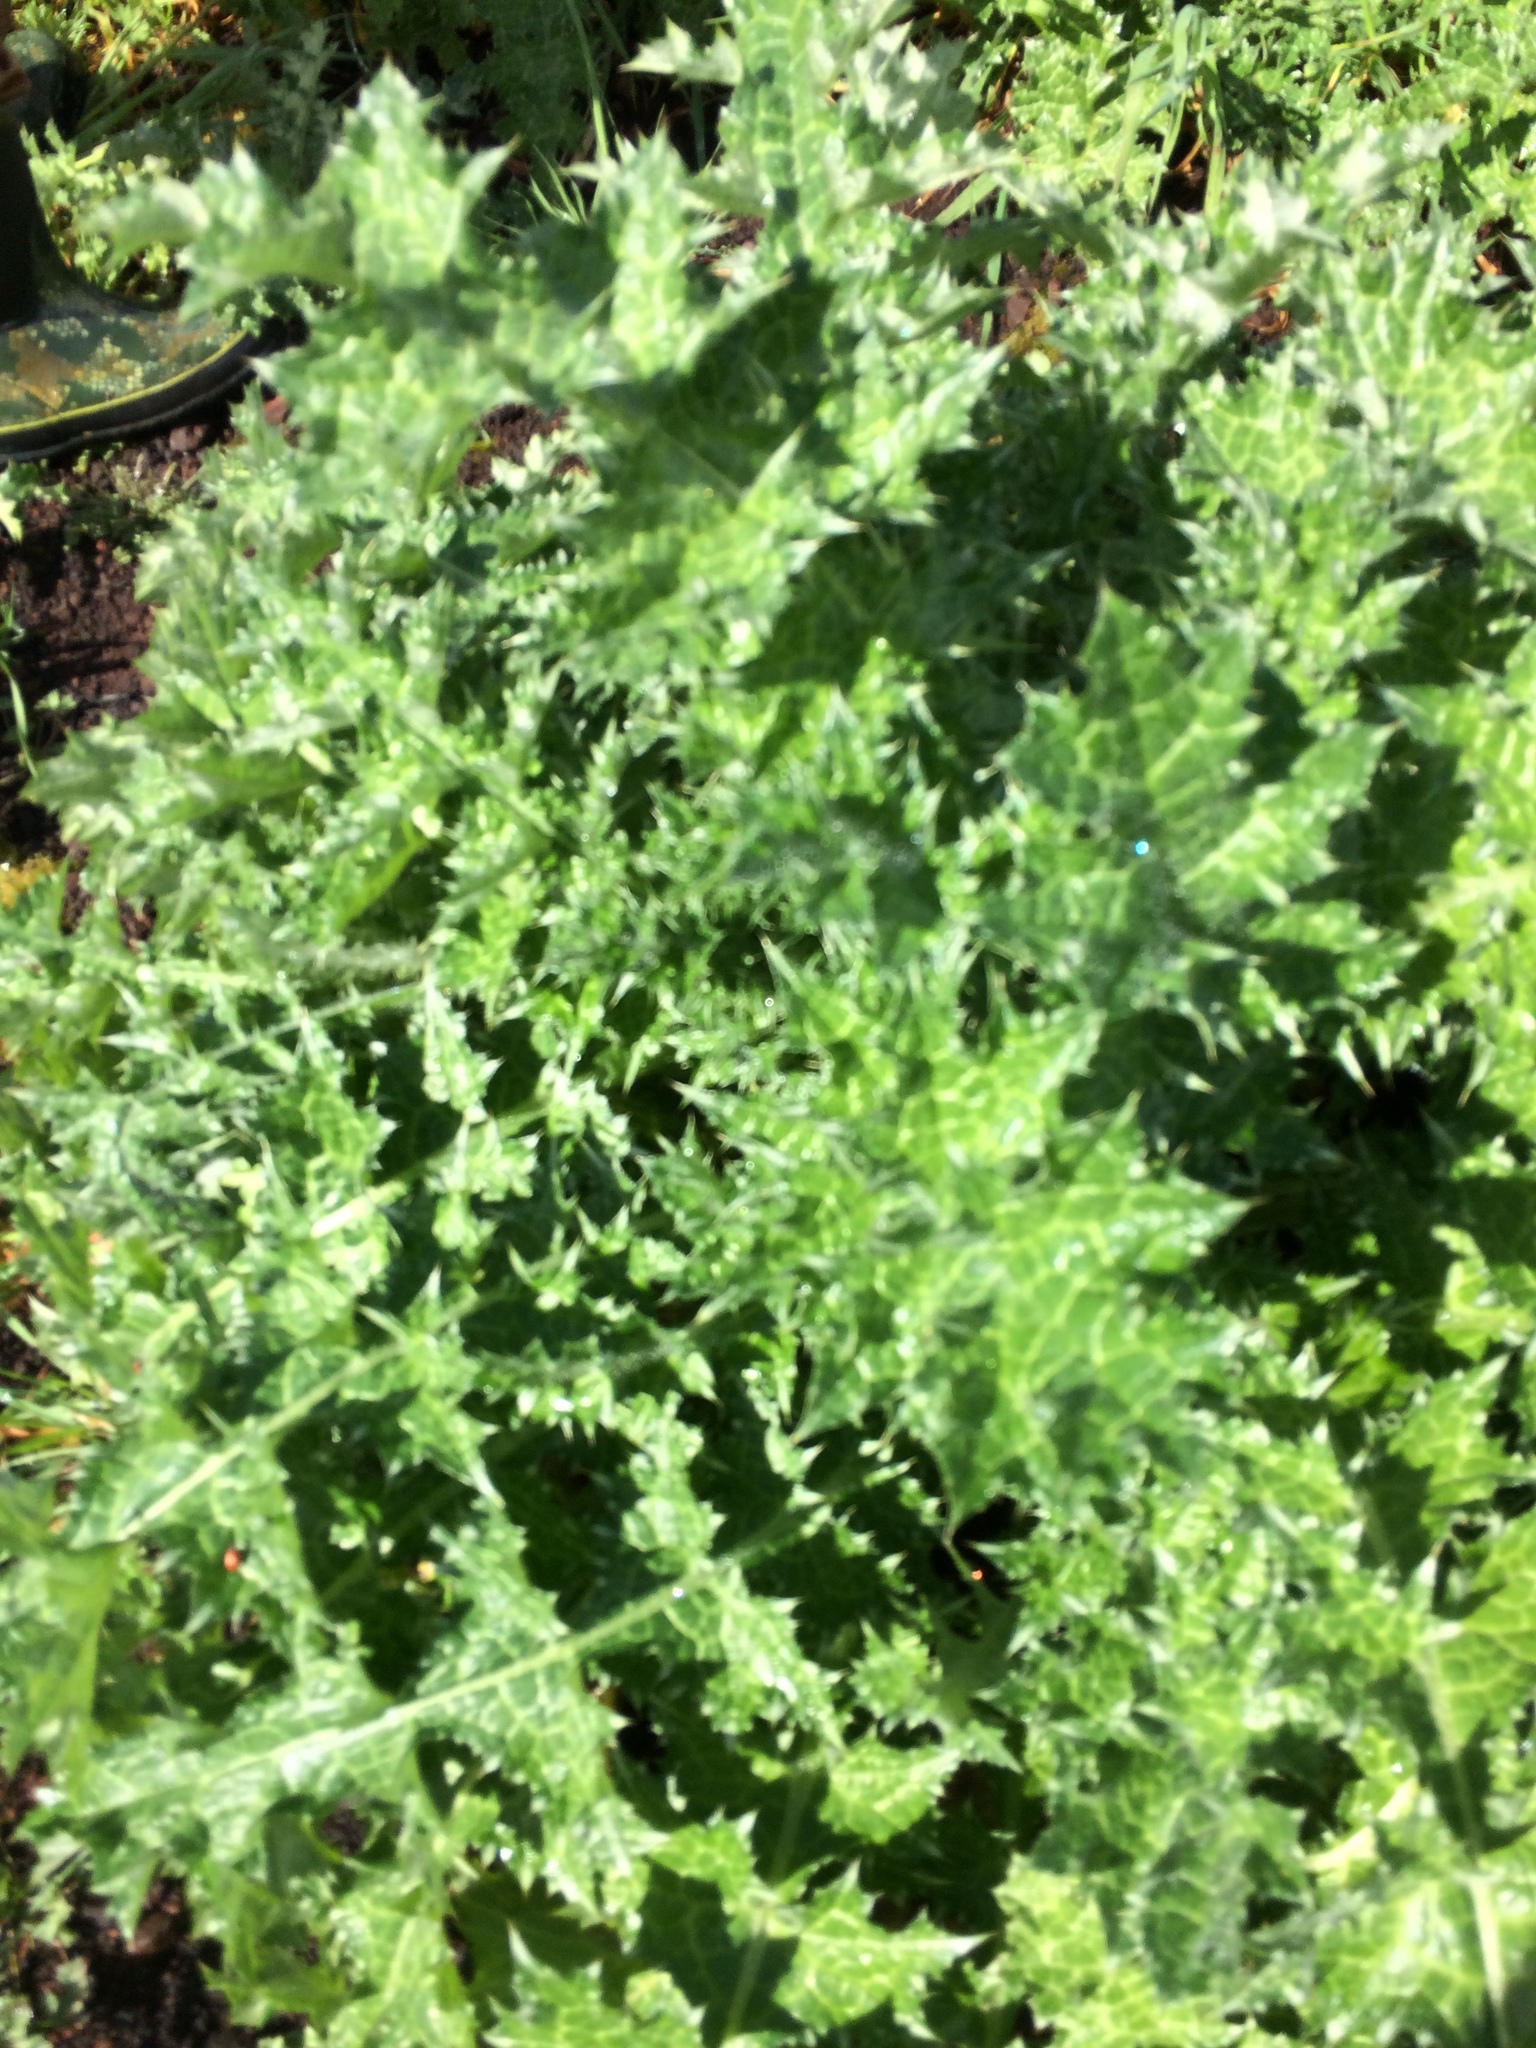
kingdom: Plantae
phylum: Tracheophyta
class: Magnoliopsida
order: Asterales
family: Asteraceae
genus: Carduus
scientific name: Carduus pycnocephalus
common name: Plymouth thistle
